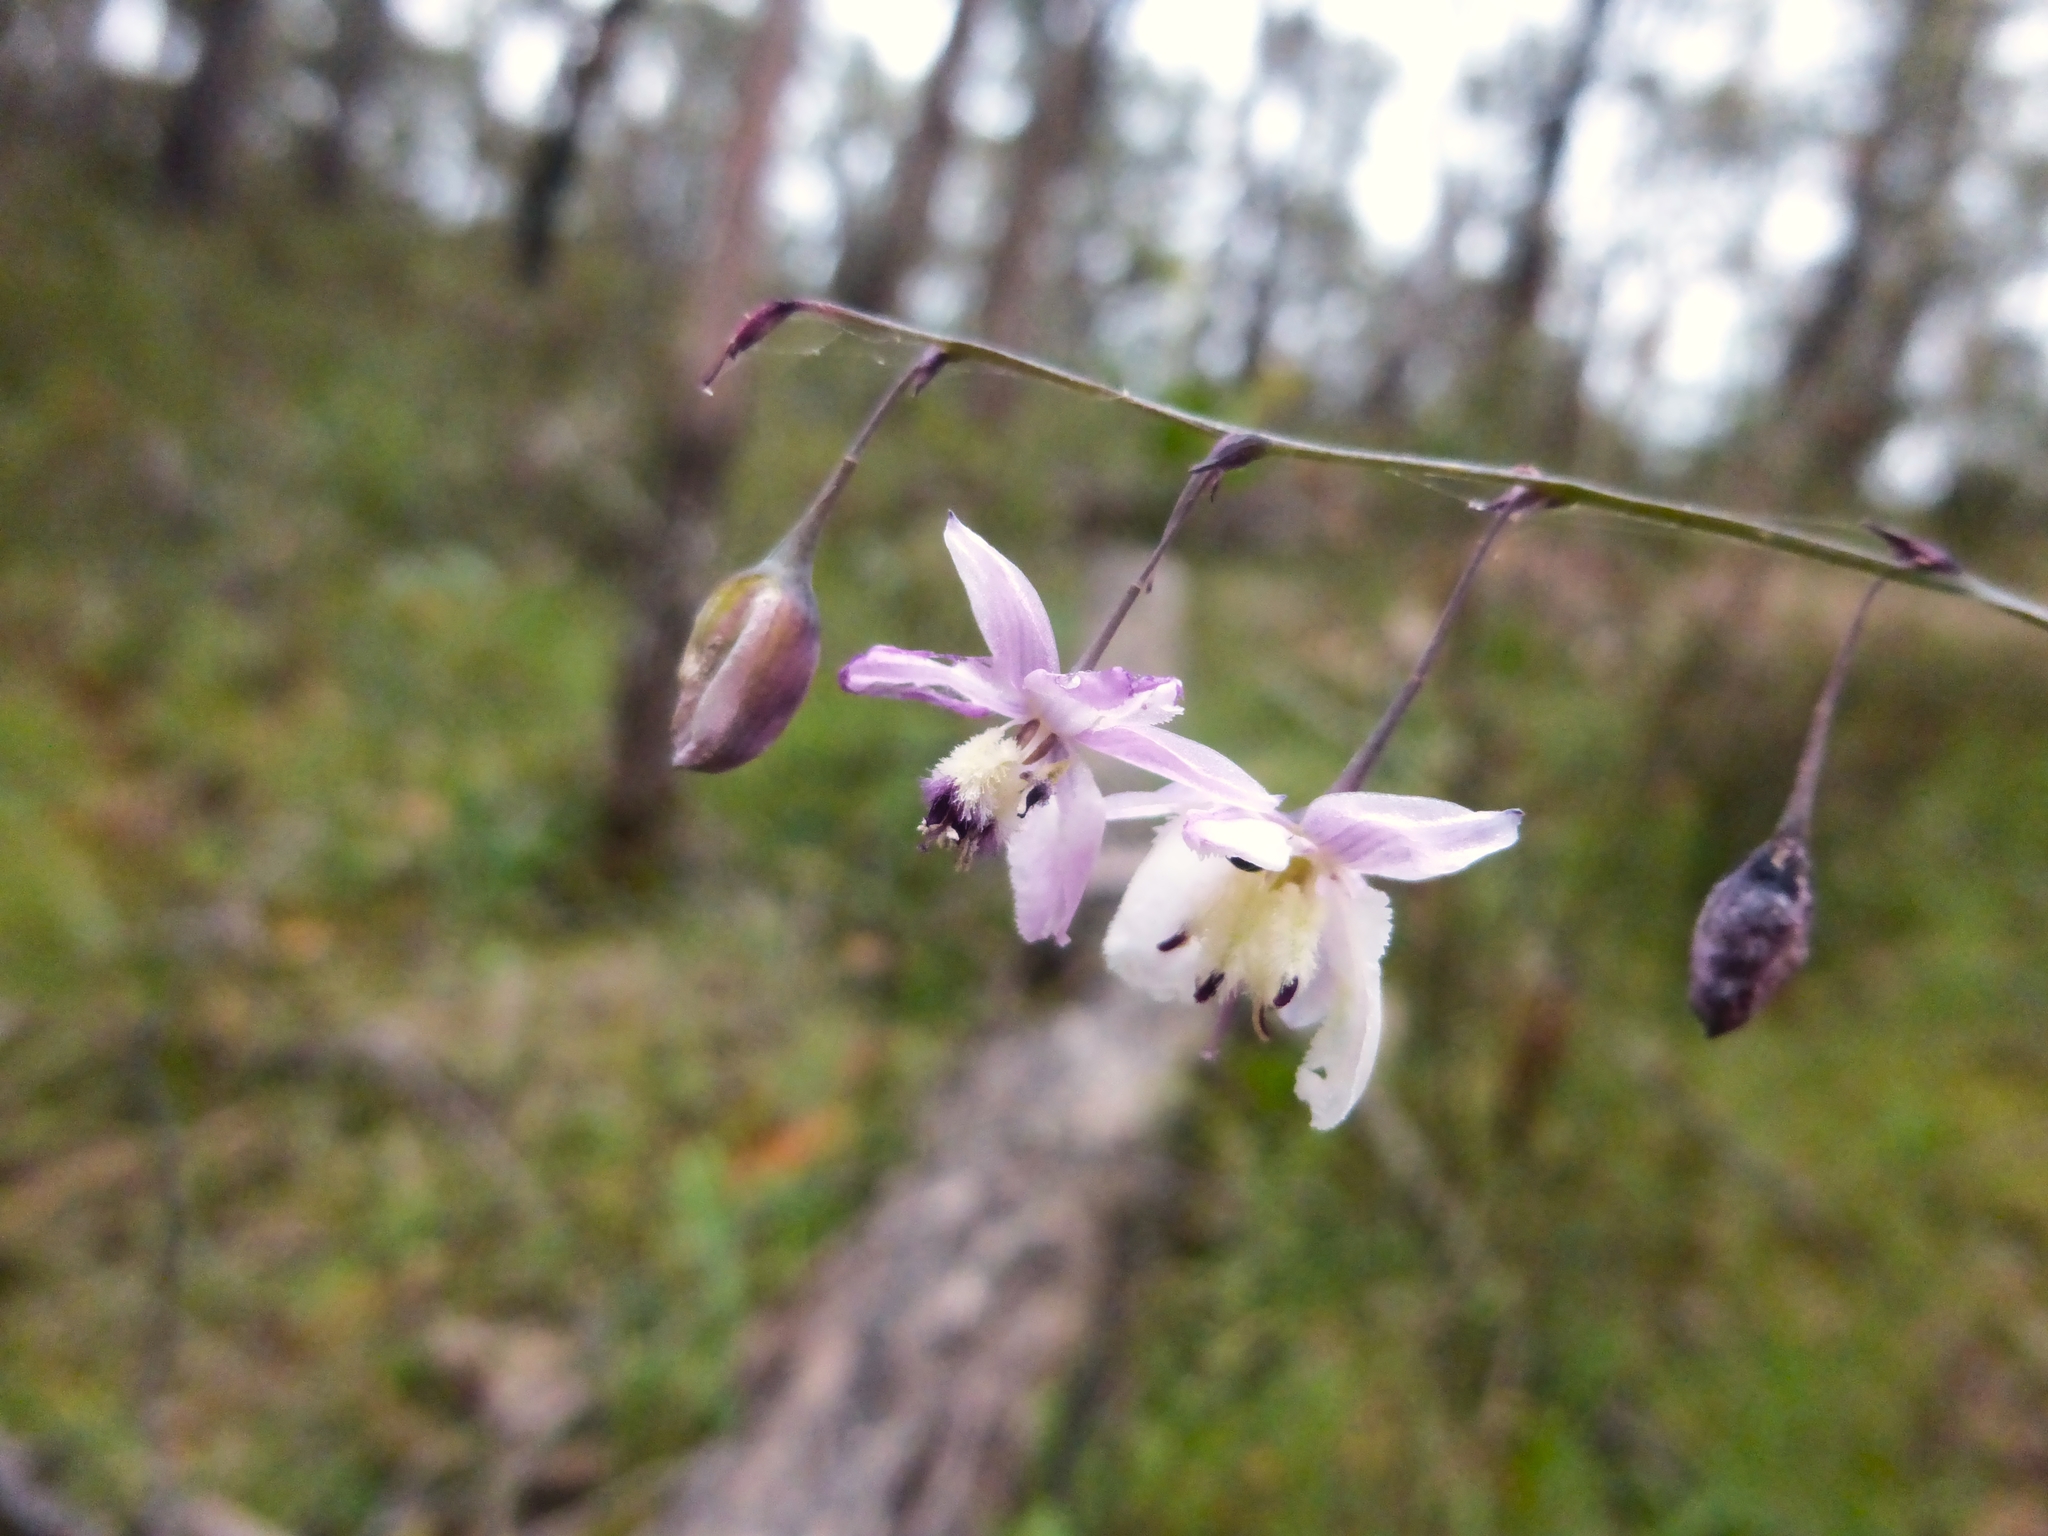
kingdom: Plantae
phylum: Tracheophyta
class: Liliopsida
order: Asparagales
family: Asparagaceae
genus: Arthropodium
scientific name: Arthropodium milleflorum
